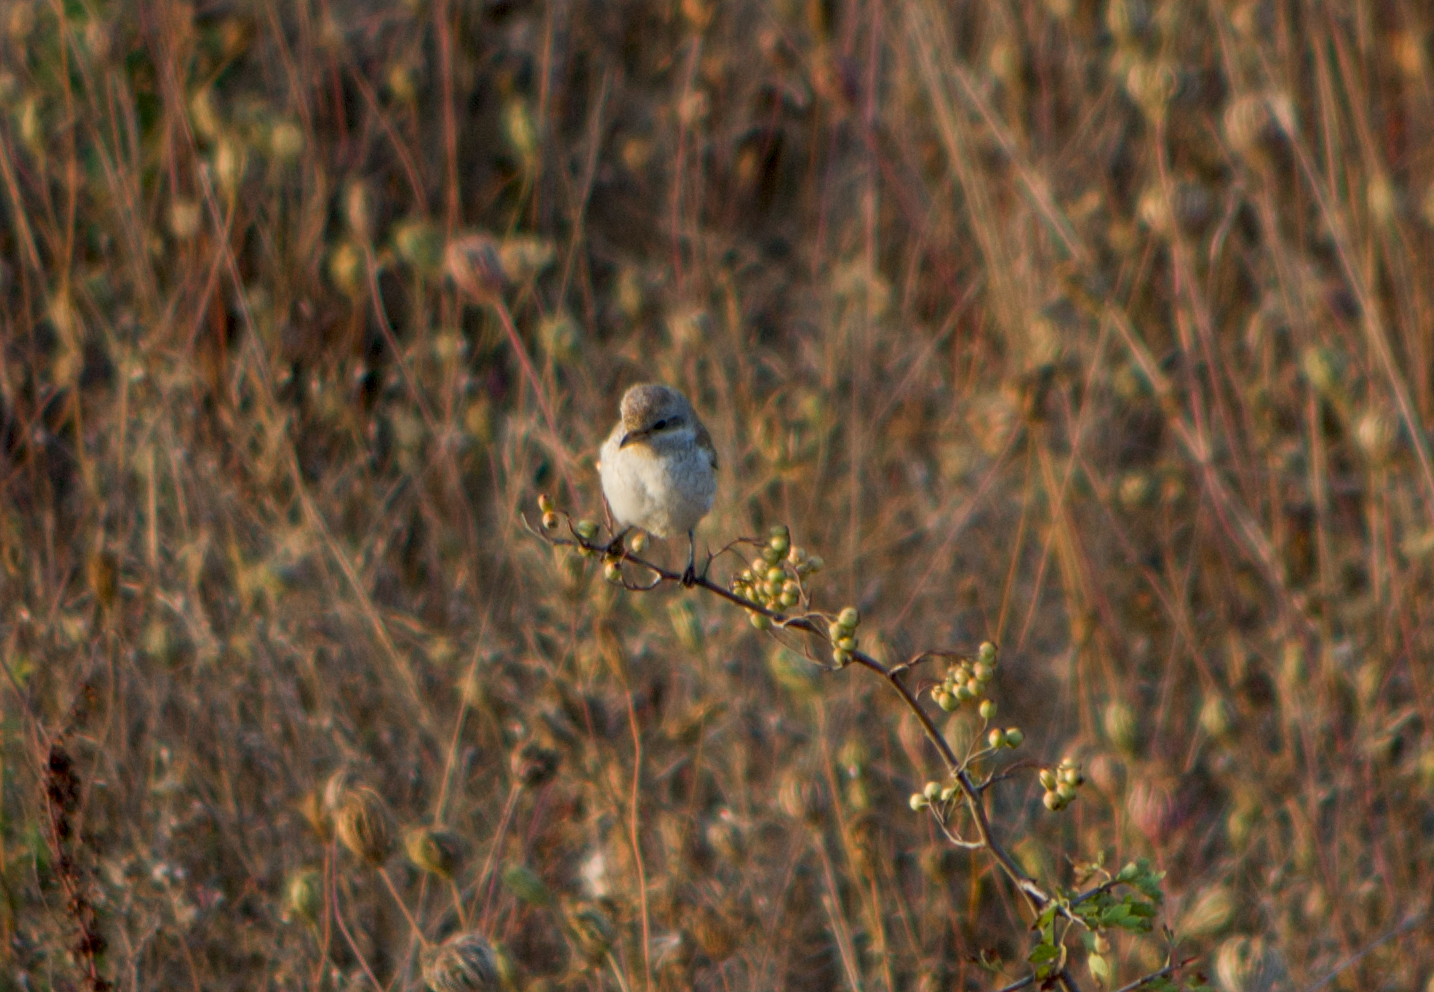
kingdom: Animalia
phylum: Chordata
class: Aves
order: Passeriformes
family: Laniidae
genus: Lanius
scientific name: Lanius collurio
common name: Red-backed shrike
